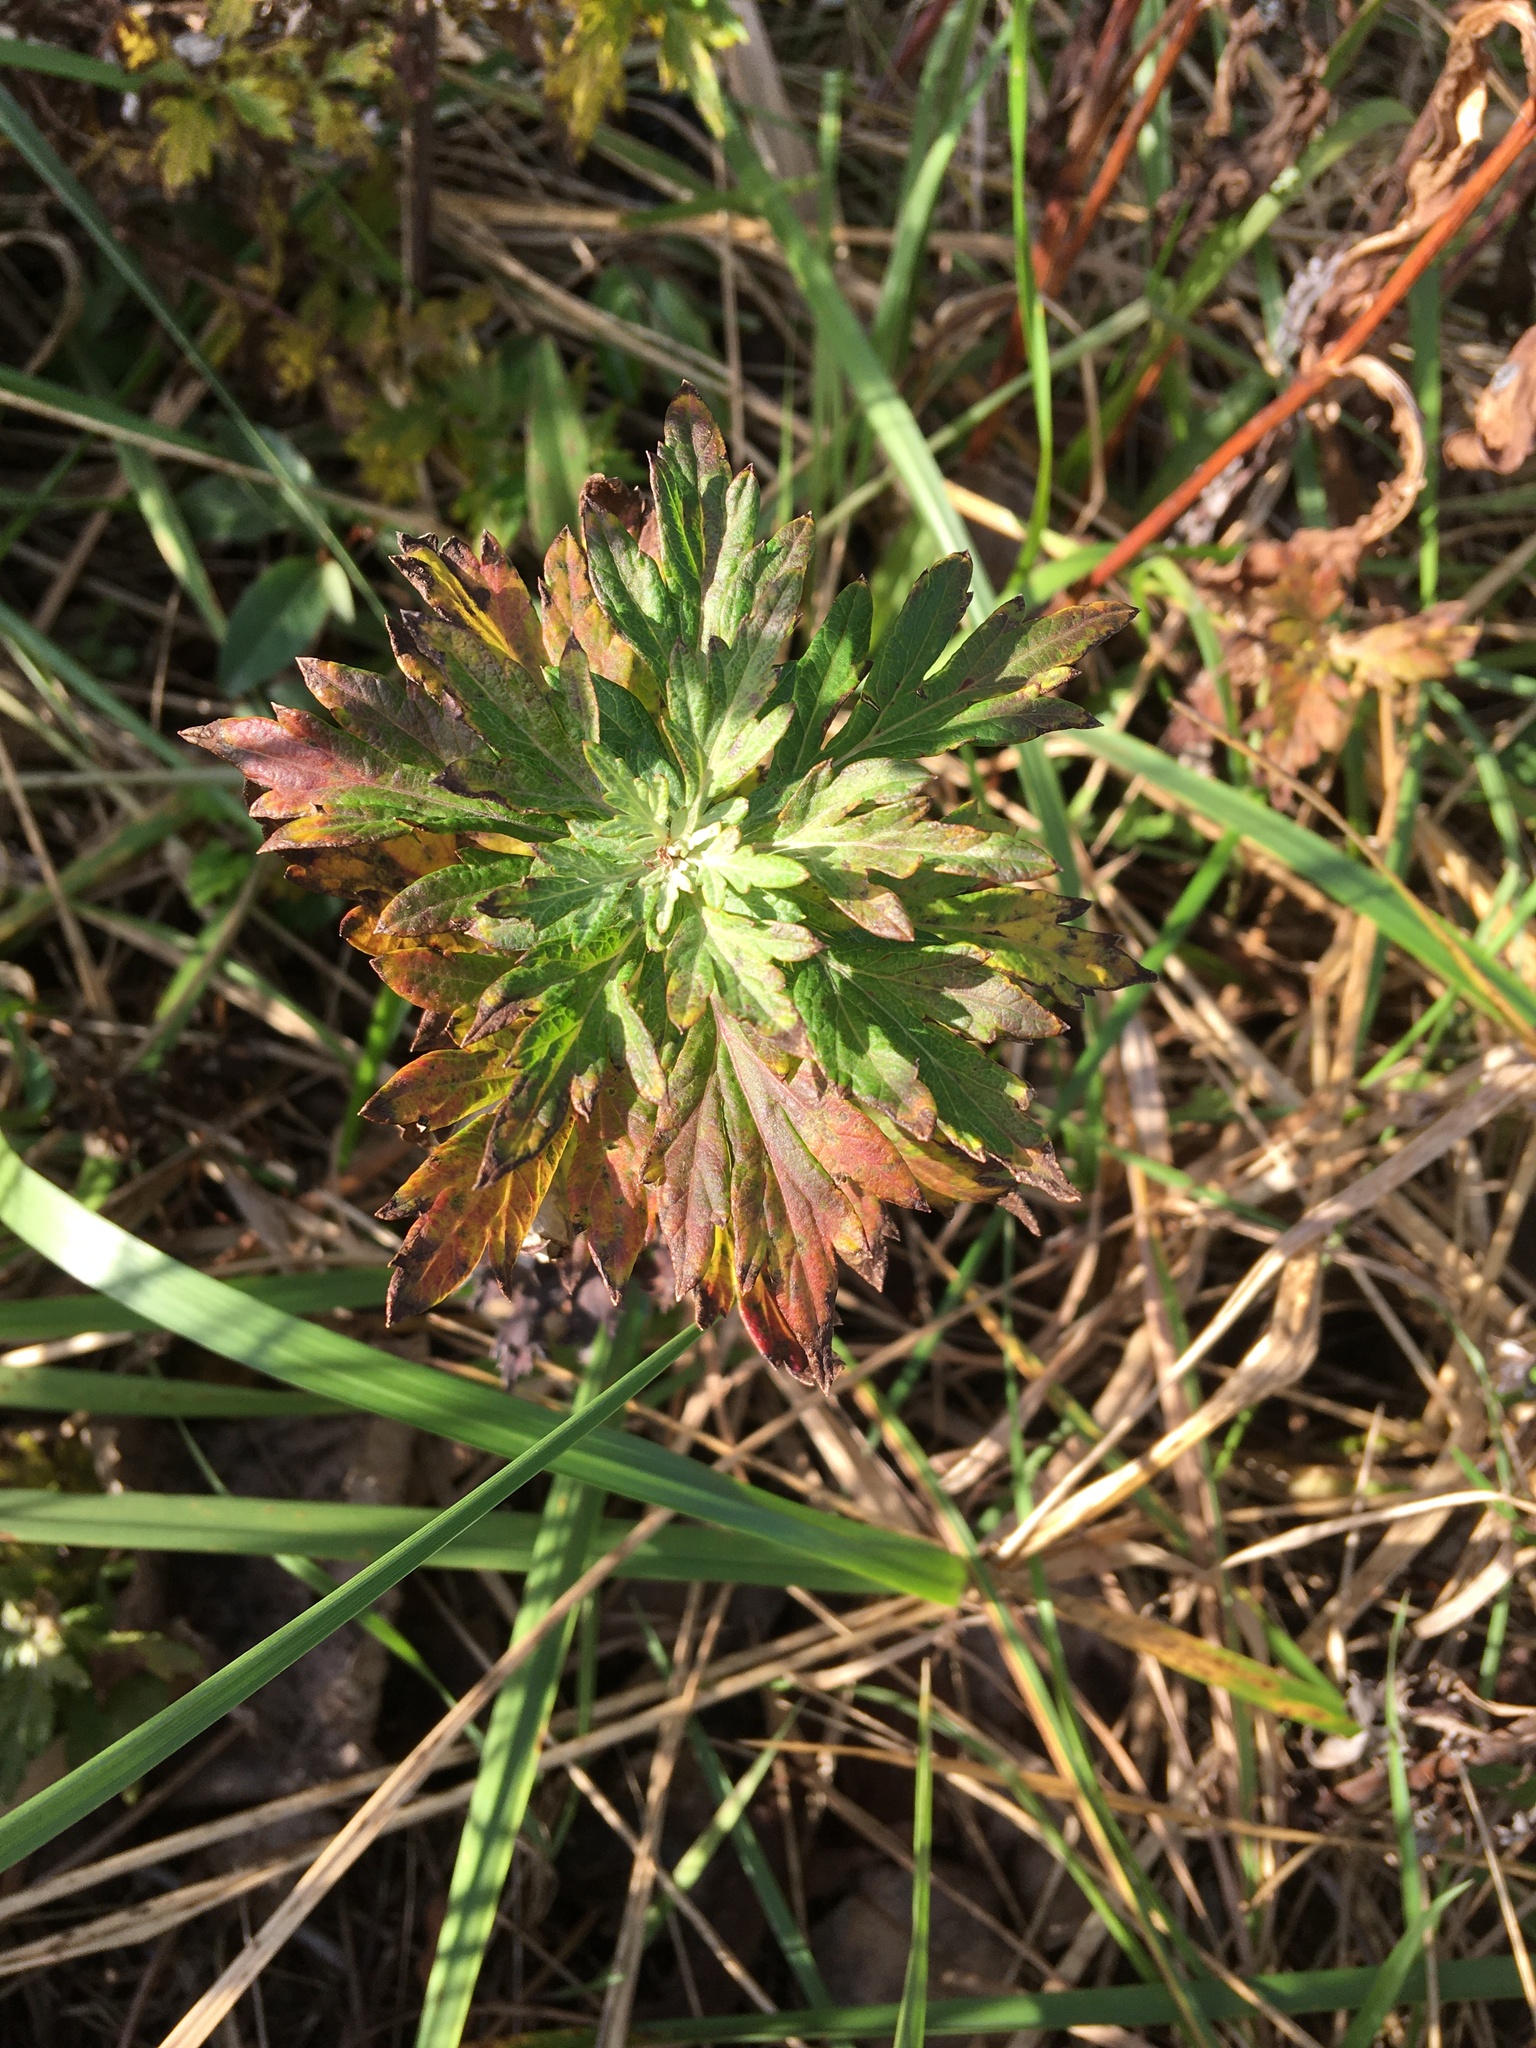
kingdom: Plantae
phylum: Tracheophyta
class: Magnoliopsida
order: Asterales
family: Asteraceae
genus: Artemisia
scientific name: Artemisia vulgaris
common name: Mugwort
